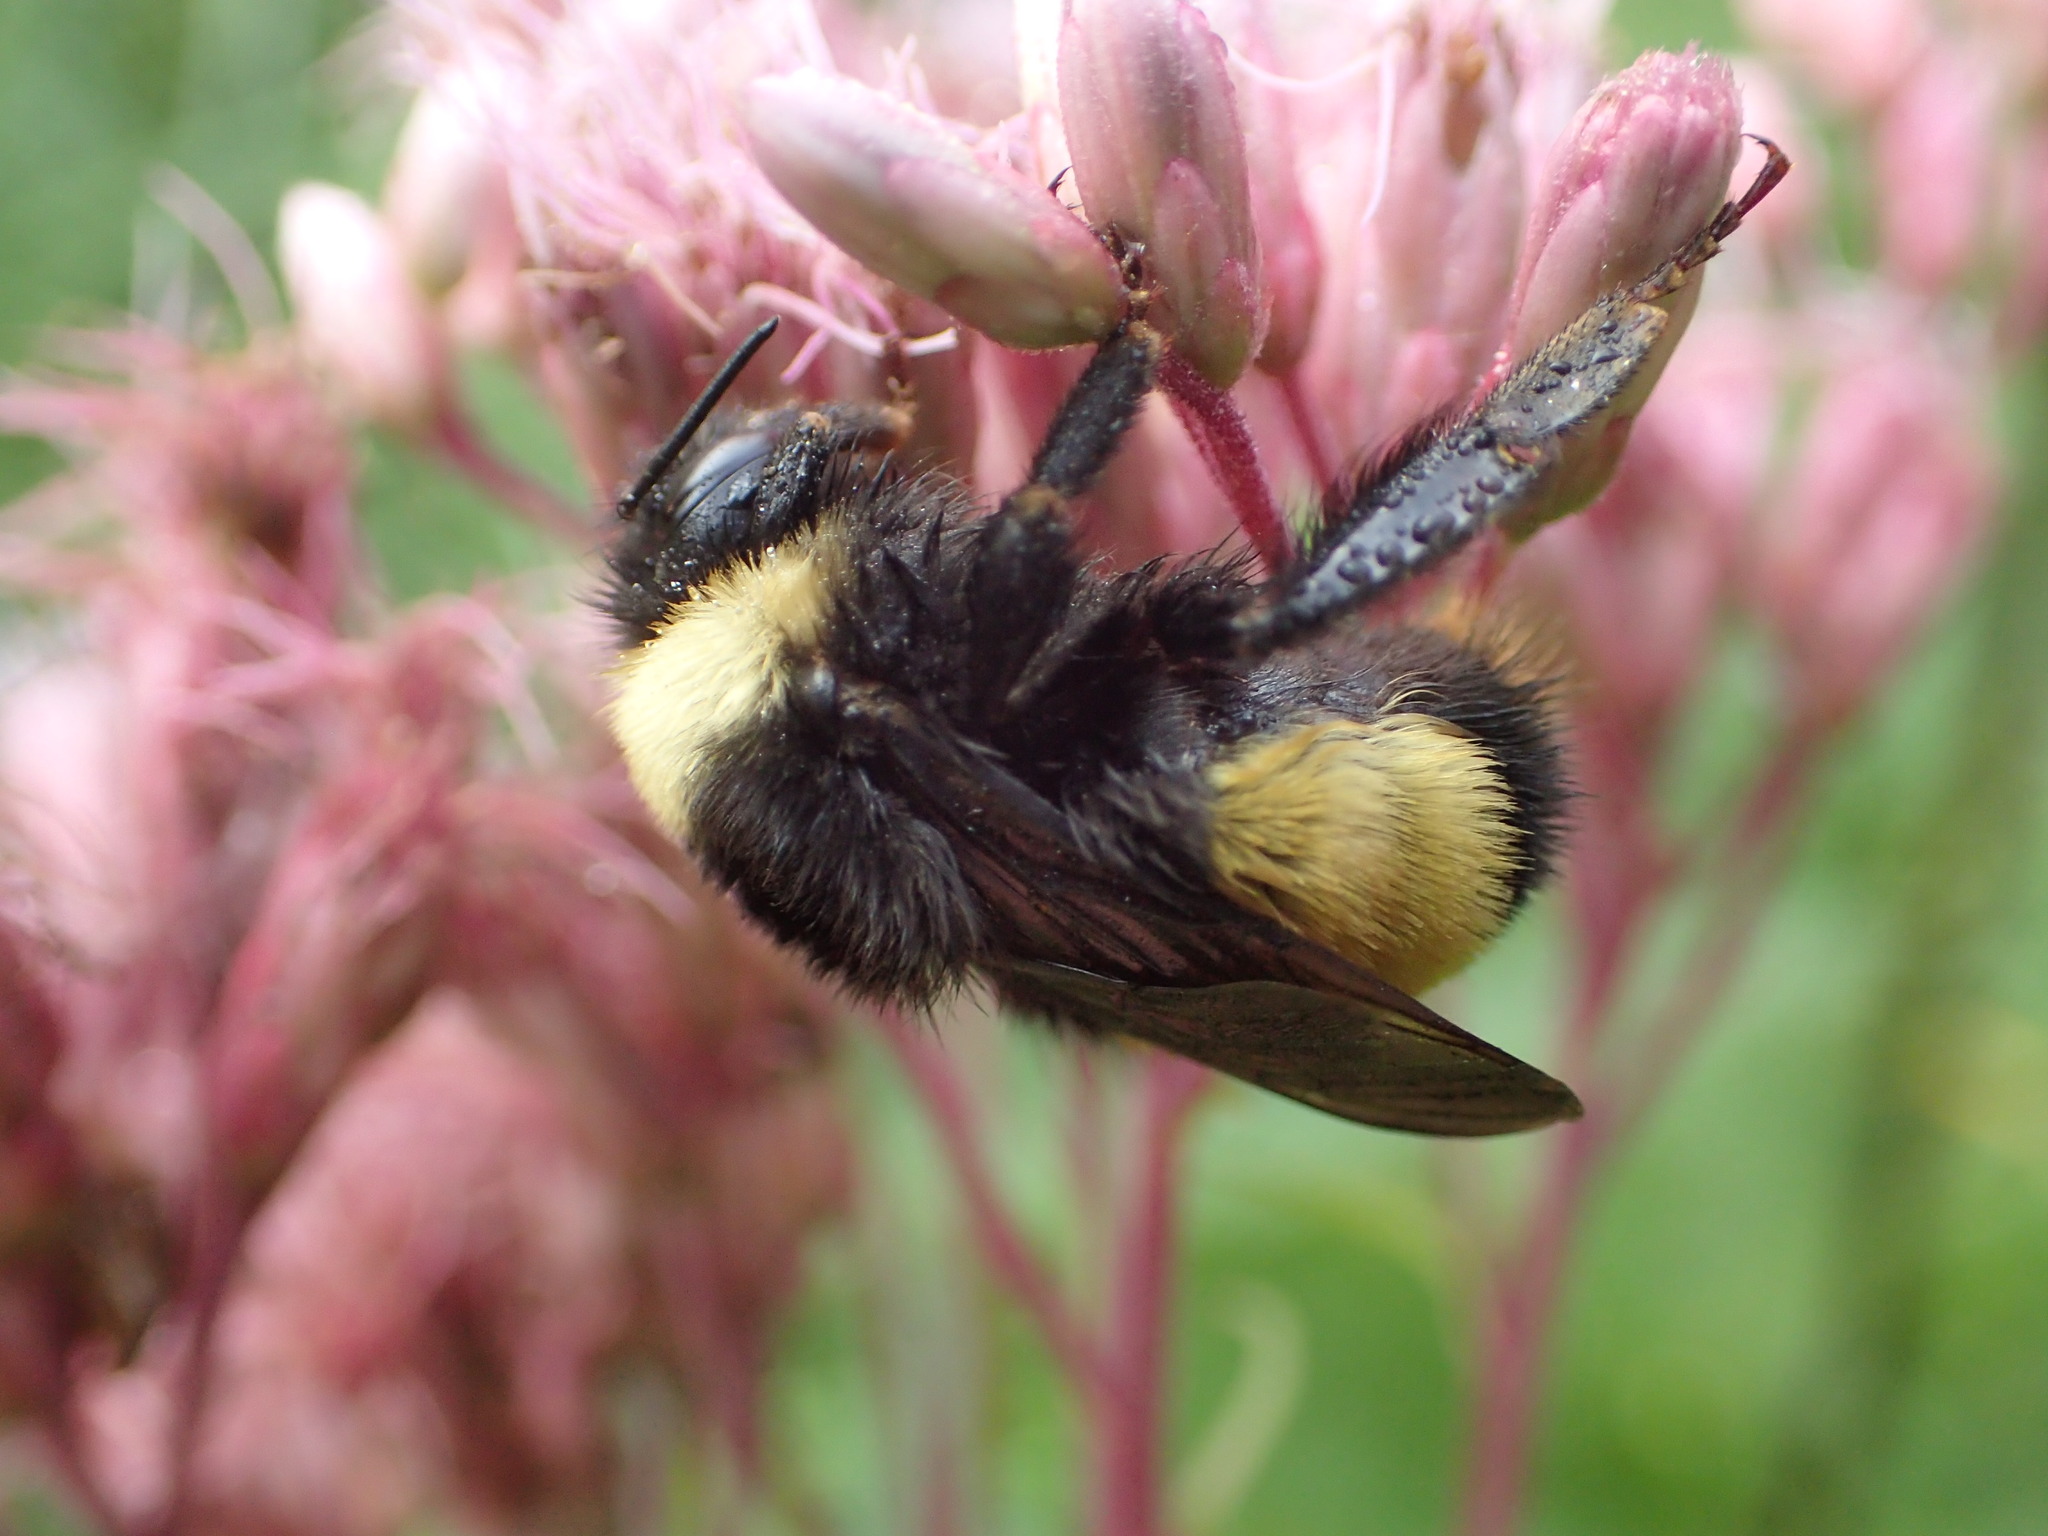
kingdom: Animalia
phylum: Arthropoda
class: Insecta
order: Hymenoptera
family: Apidae
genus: Bombus
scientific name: Bombus terricola
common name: Yellow-banded bumble bee
